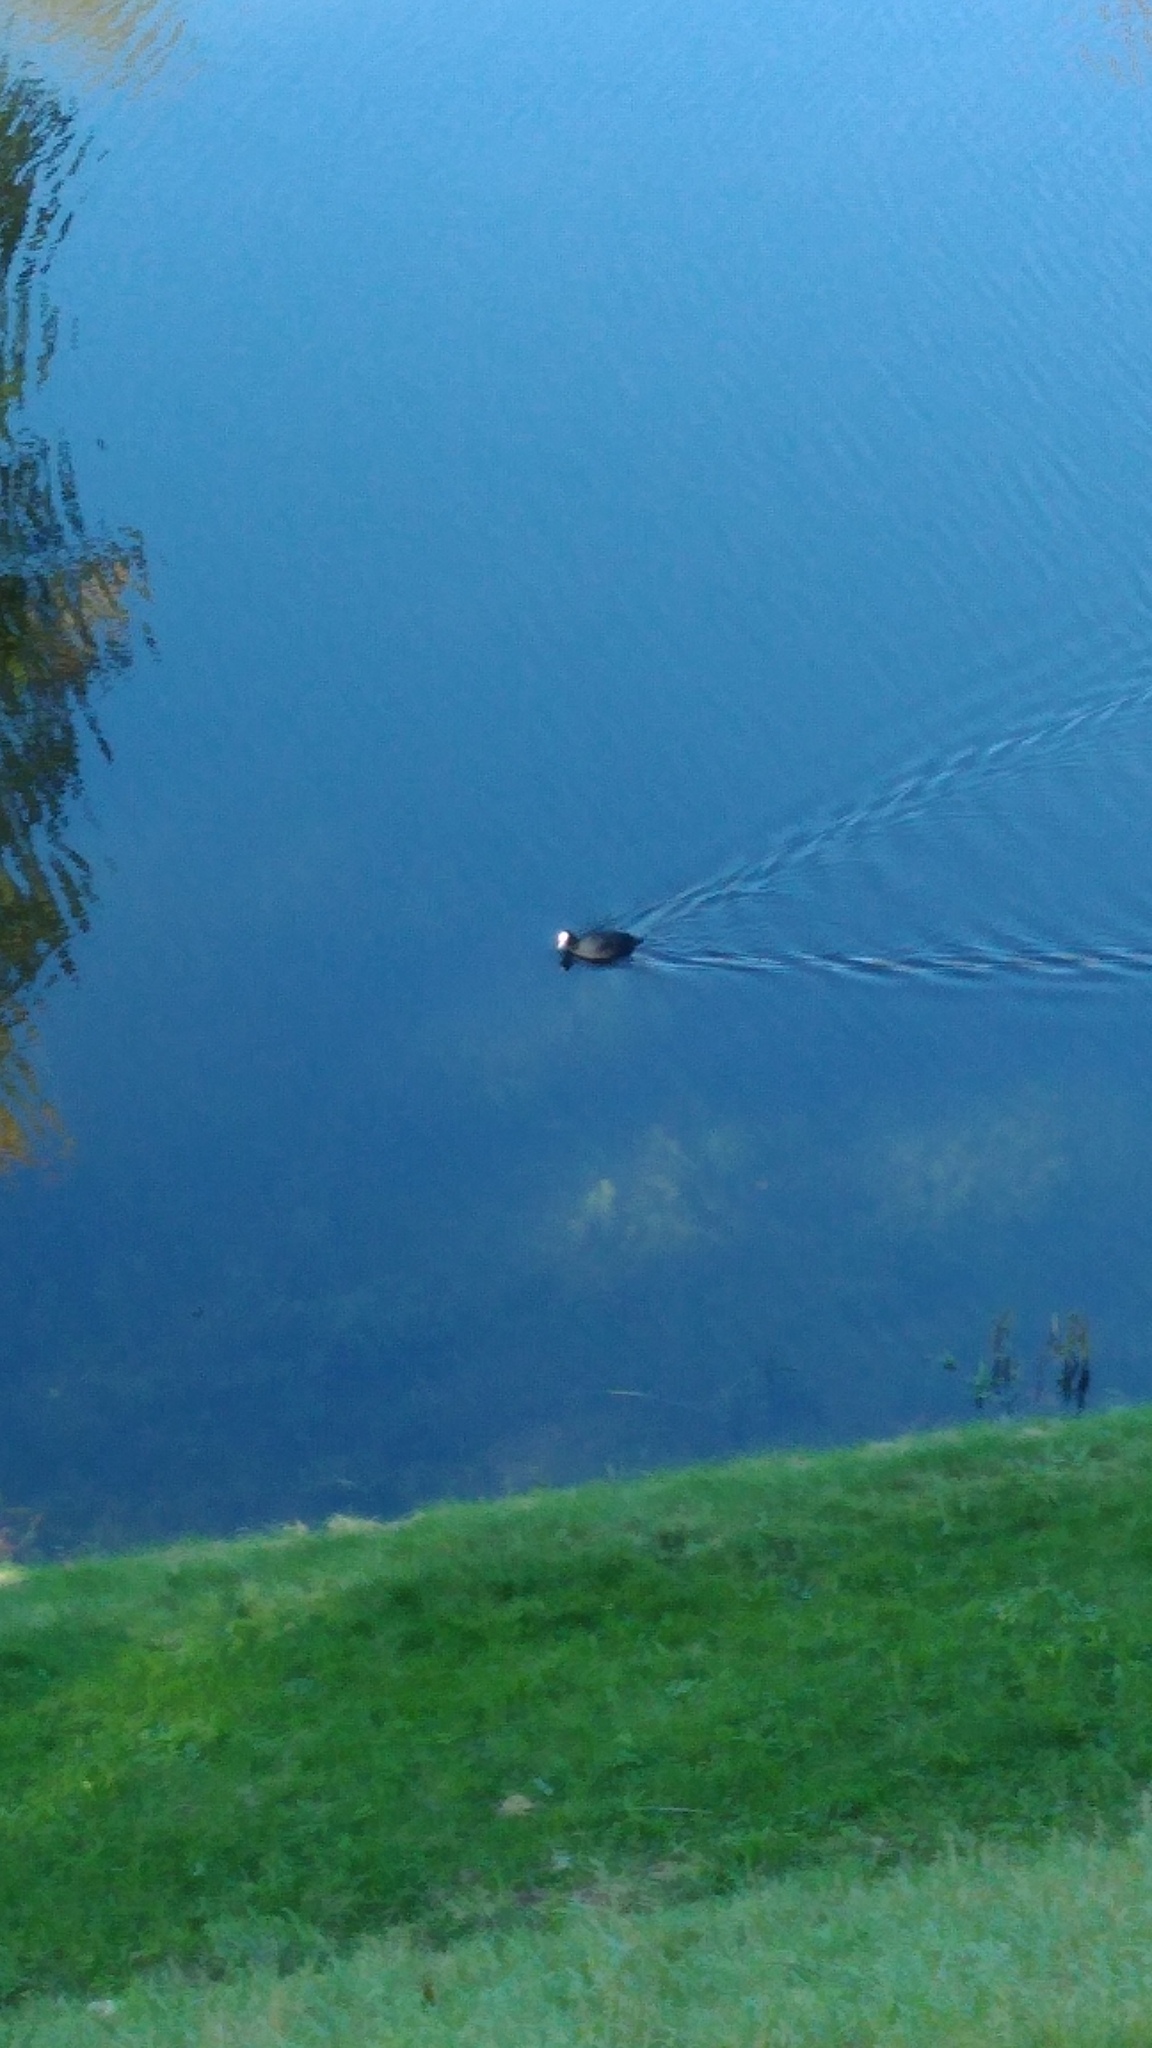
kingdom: Animalia
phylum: Chordata
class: Aves
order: Gruiformes
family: Rallidae
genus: Fulica
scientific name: Fulica atra
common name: Eurasian coot
